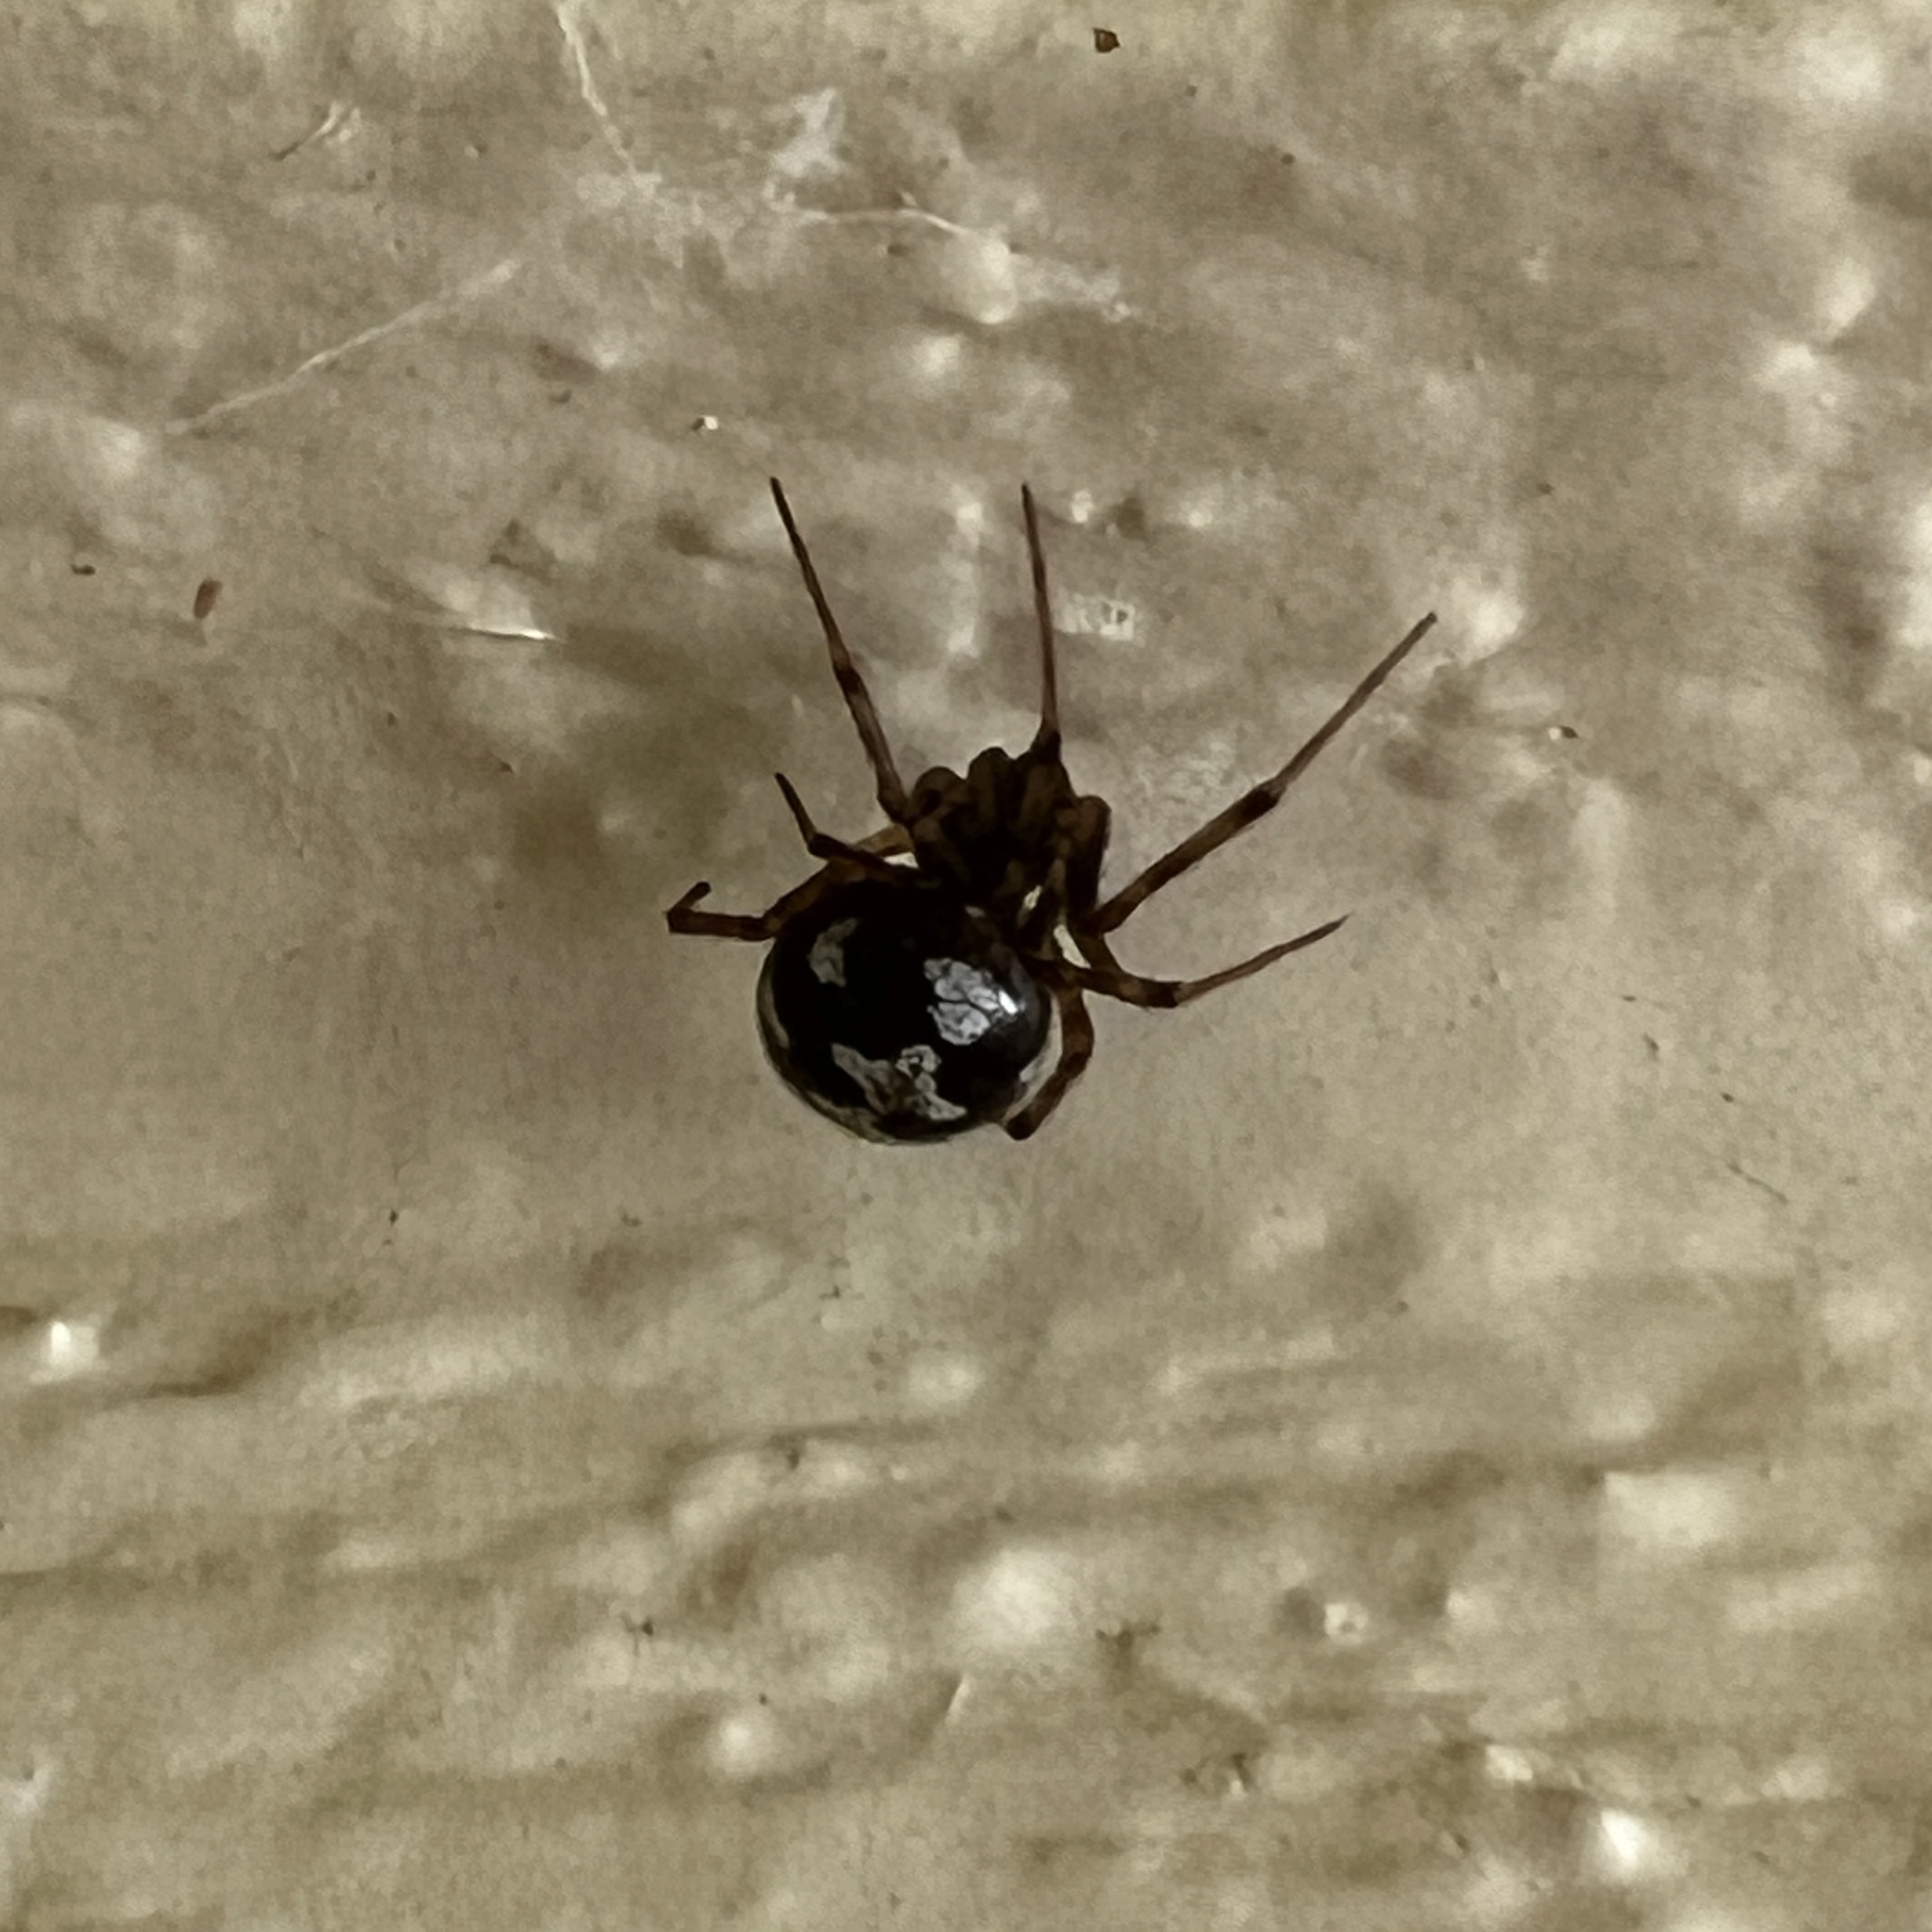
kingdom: Animalia
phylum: Arthropoda
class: Arachnida
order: Araneae
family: Theridiidae
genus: Steatoda
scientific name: Steatoda triangulosa
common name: Triangulate bud spider
